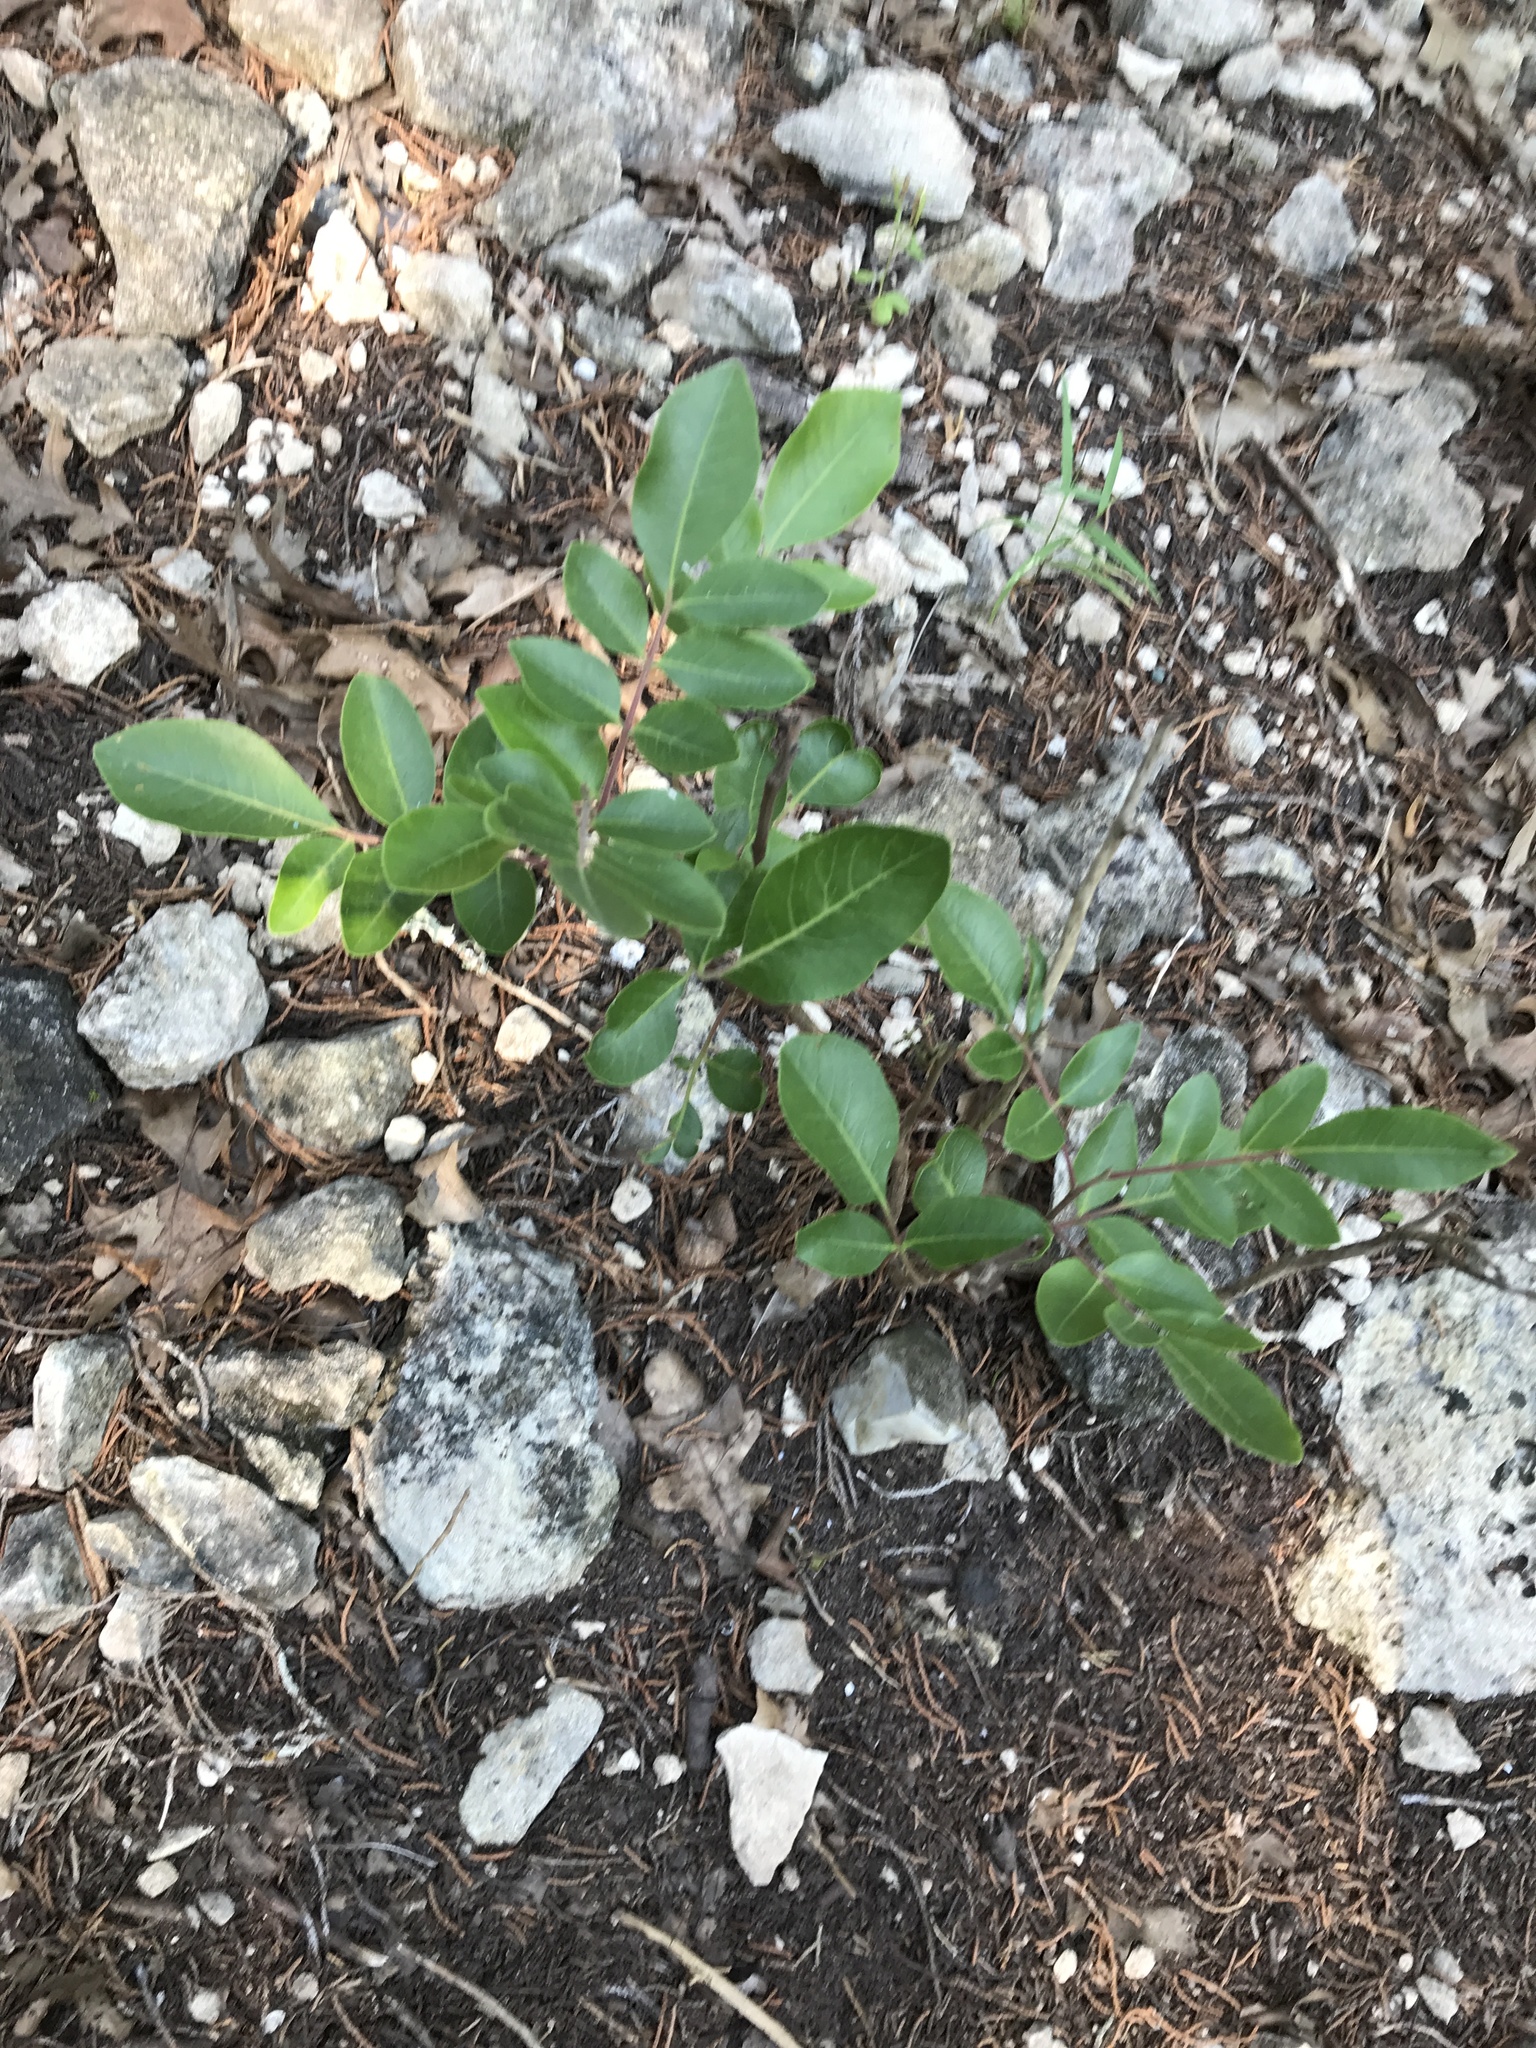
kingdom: Plantae
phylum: Tracheophyta
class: Magnoliopsida
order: Sapindales
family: Anacardiaceae
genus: Rhus
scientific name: Rhus virens
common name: Evergreen sumac
